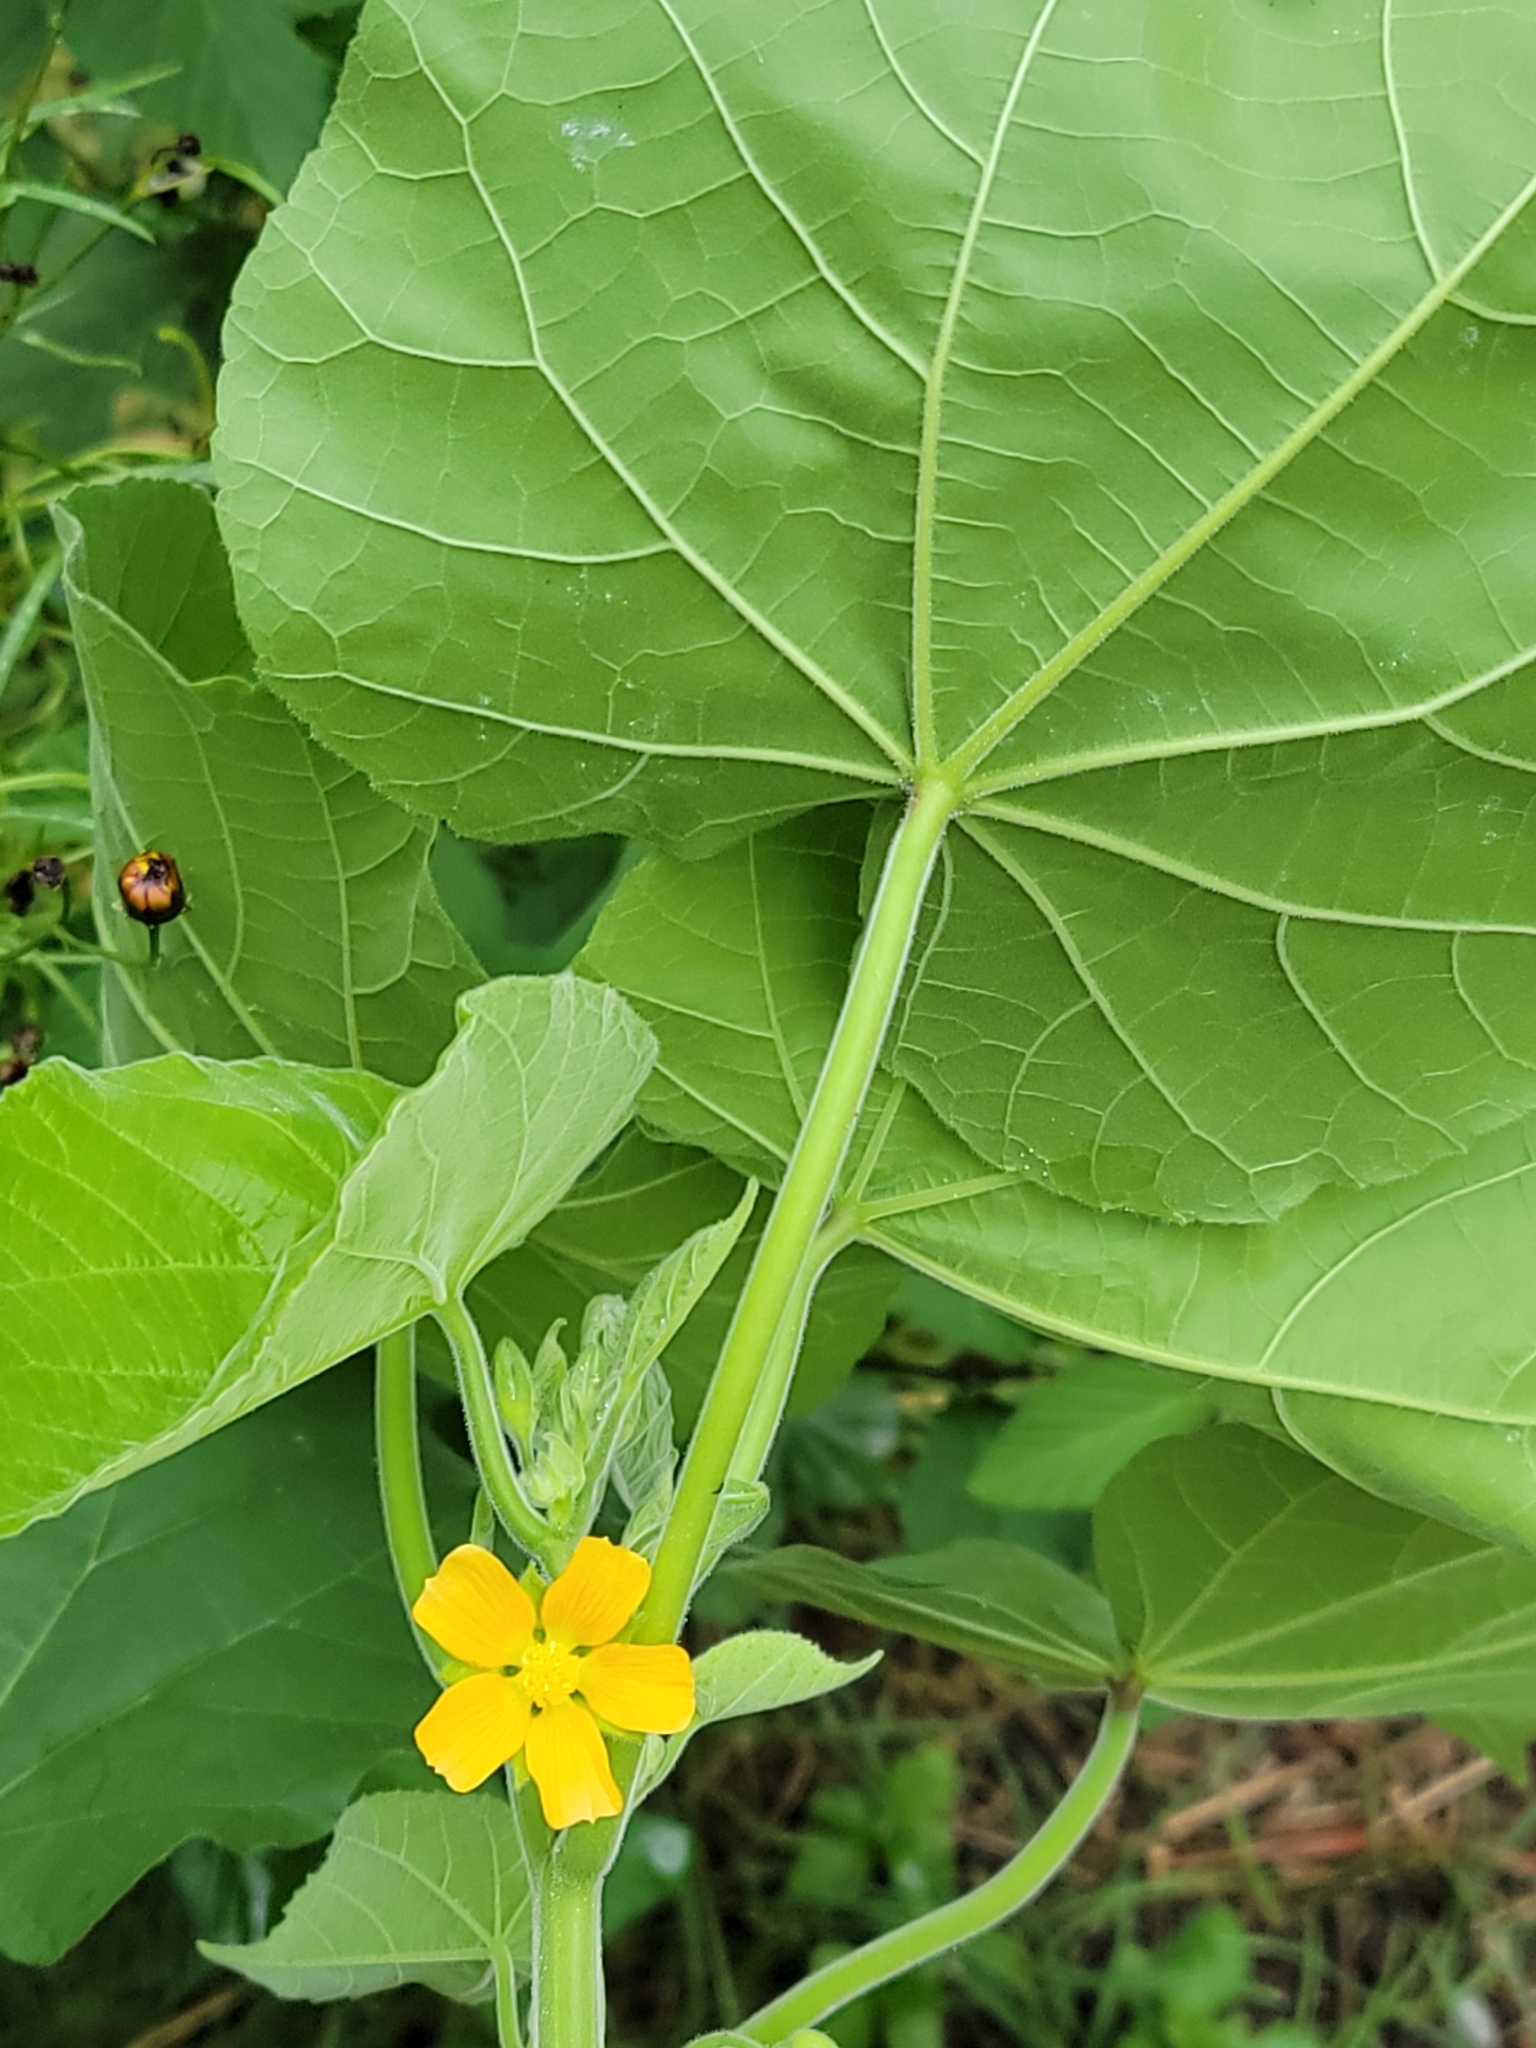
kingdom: Plantae
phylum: Tracheophyta
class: Magnoliopsida
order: Malvales
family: Malvaceae
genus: Abutilon
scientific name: Abutilon theophrasti
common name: Velvetleaf
